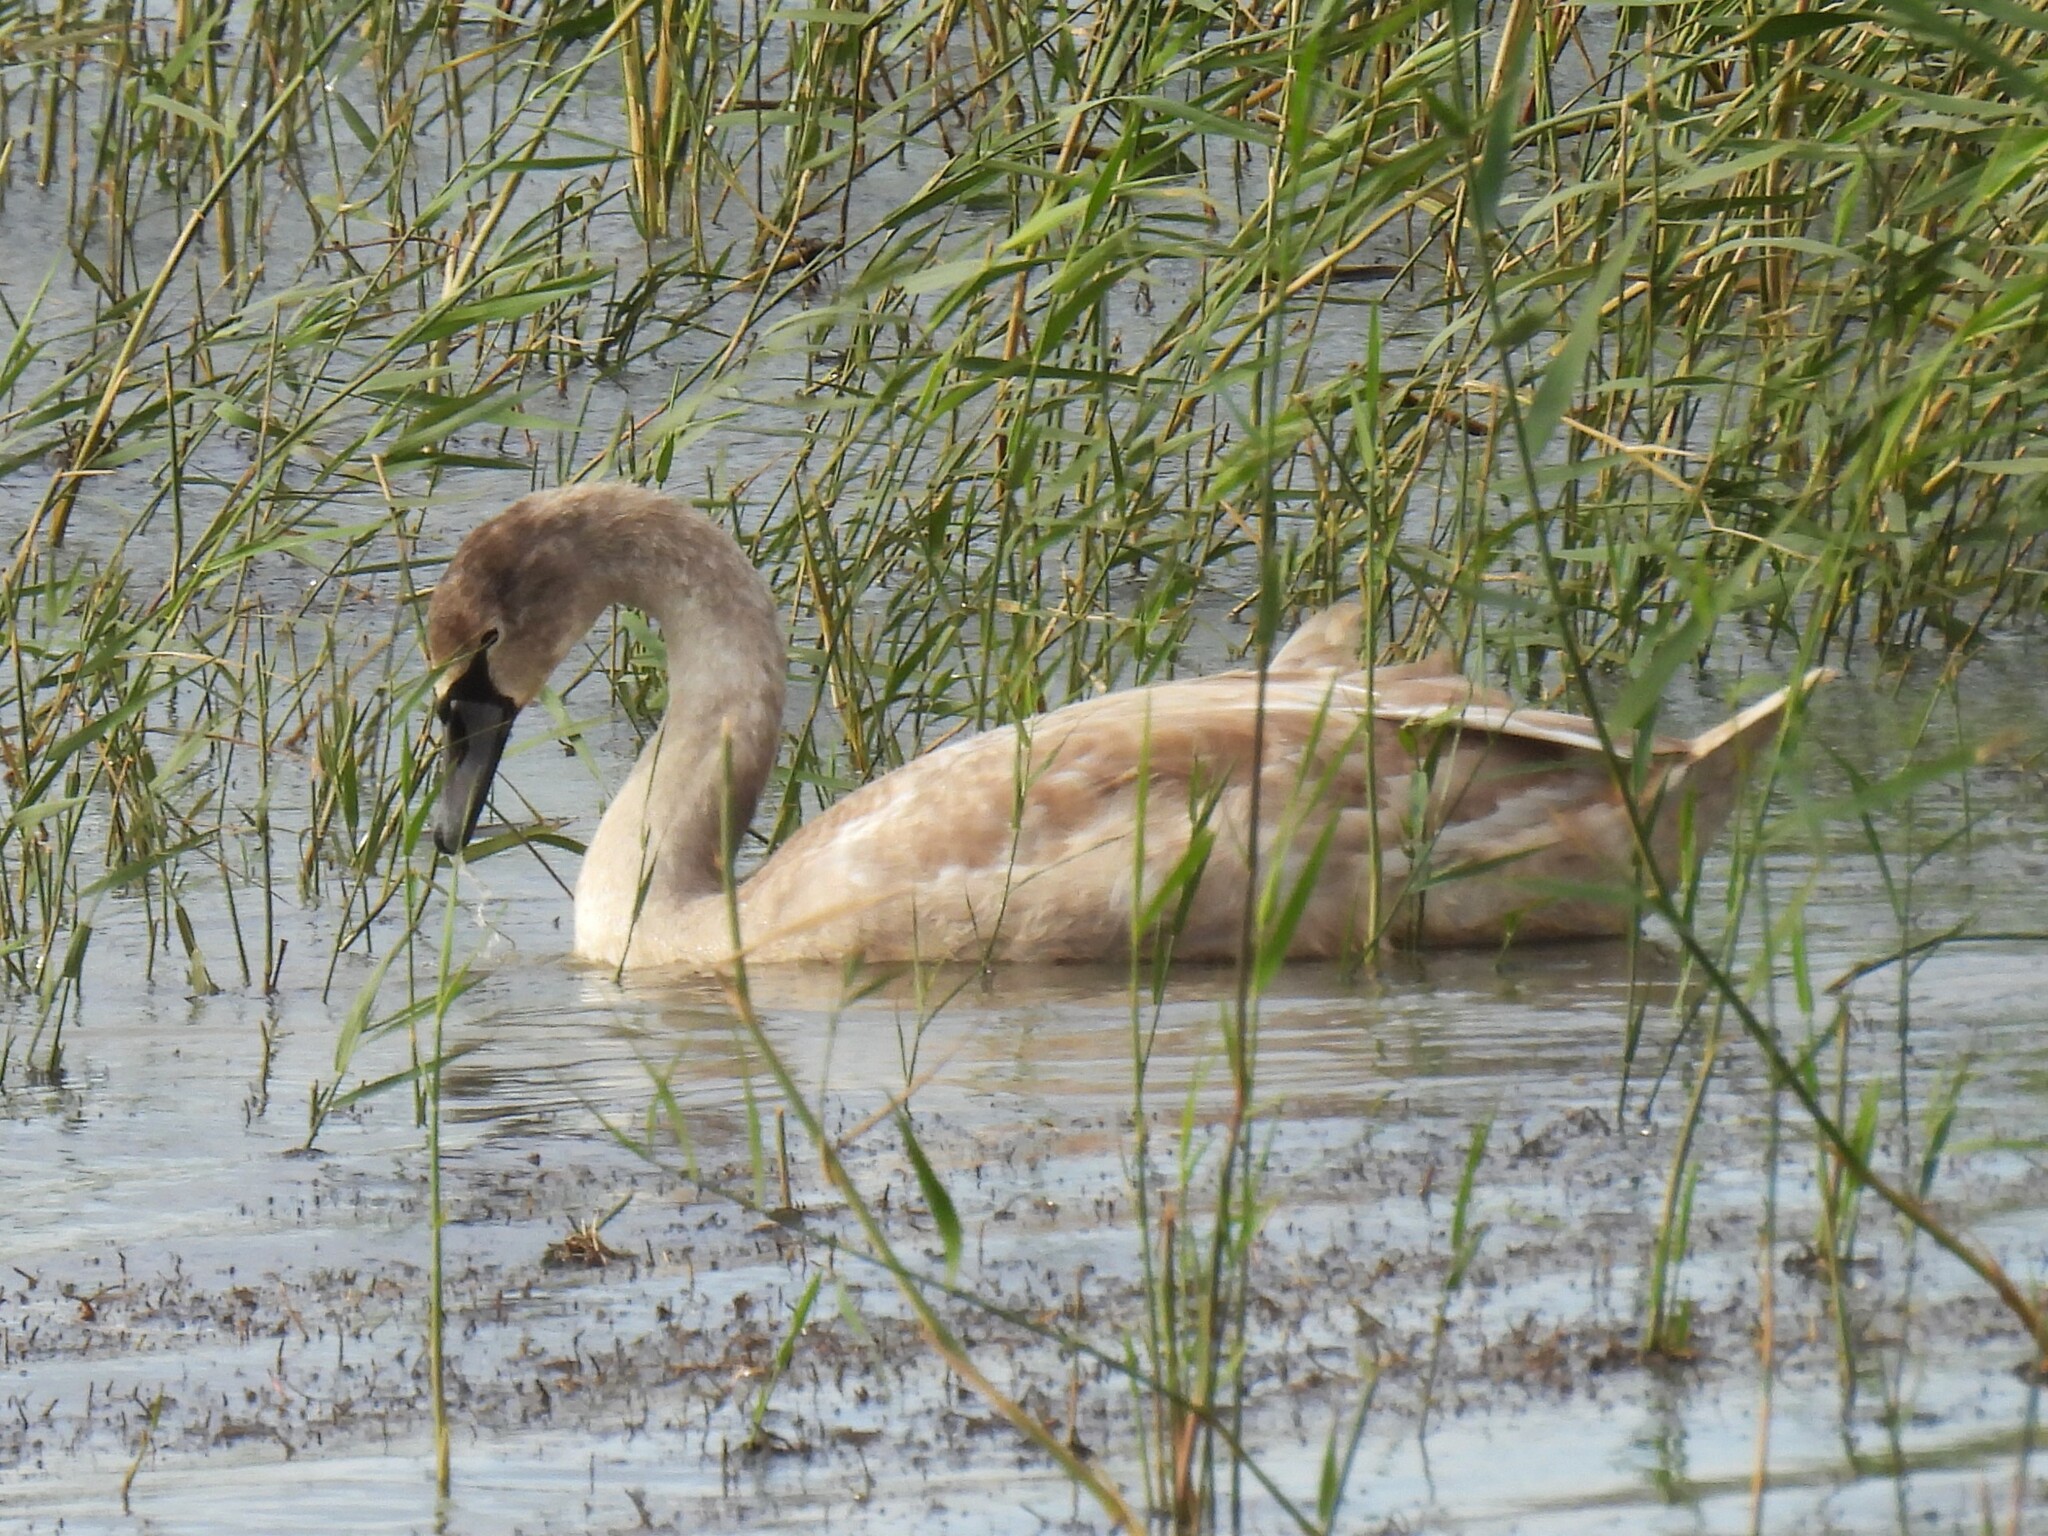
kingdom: Animalia
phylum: Chordata
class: Aves
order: Anseriformes
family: Anatidae
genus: Cygnus
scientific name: Cygnus olor
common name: Mute swan
